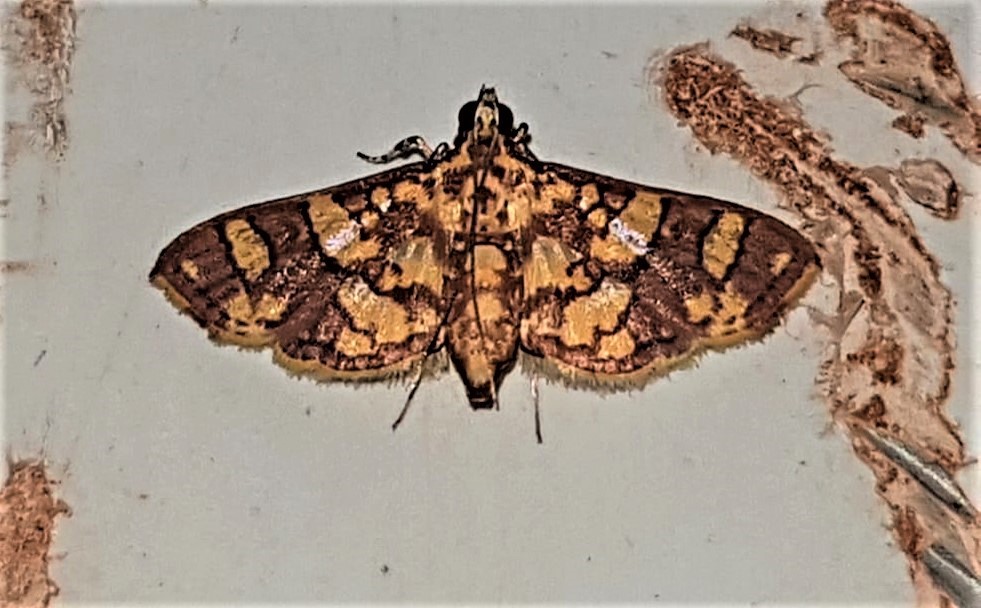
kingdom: Animalia
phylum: Arthropoda
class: Insecta
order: Lepidoptera
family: Crambidae
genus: Trithyris
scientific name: Trithyris Prenesta rubrocinctalis
